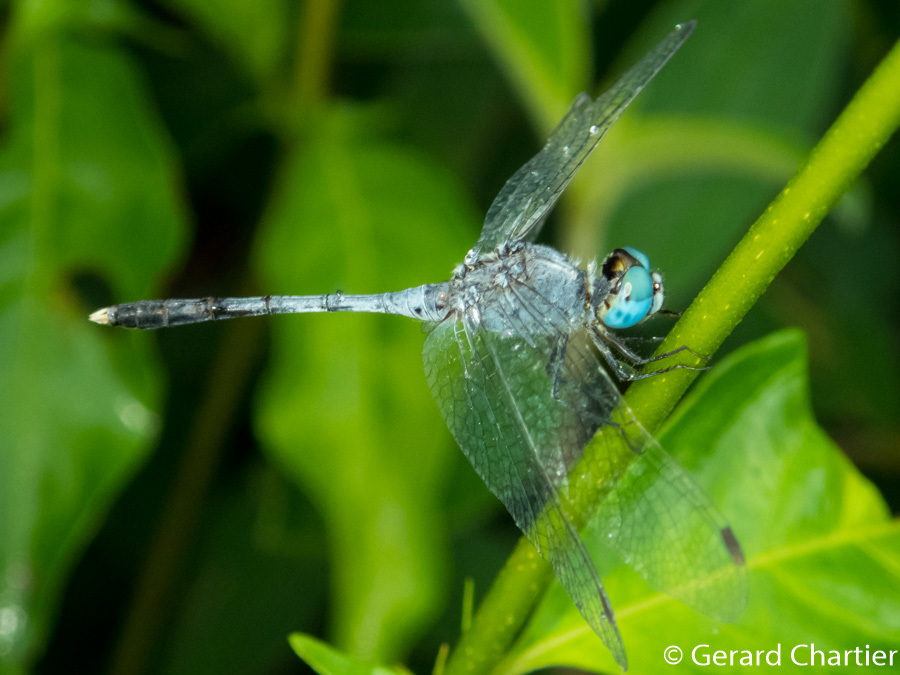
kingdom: Animalia
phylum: Arthropoda
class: Insecta
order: Odonata
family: Libellulidae
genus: Diplacodes
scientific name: Diplacodes trivialis
